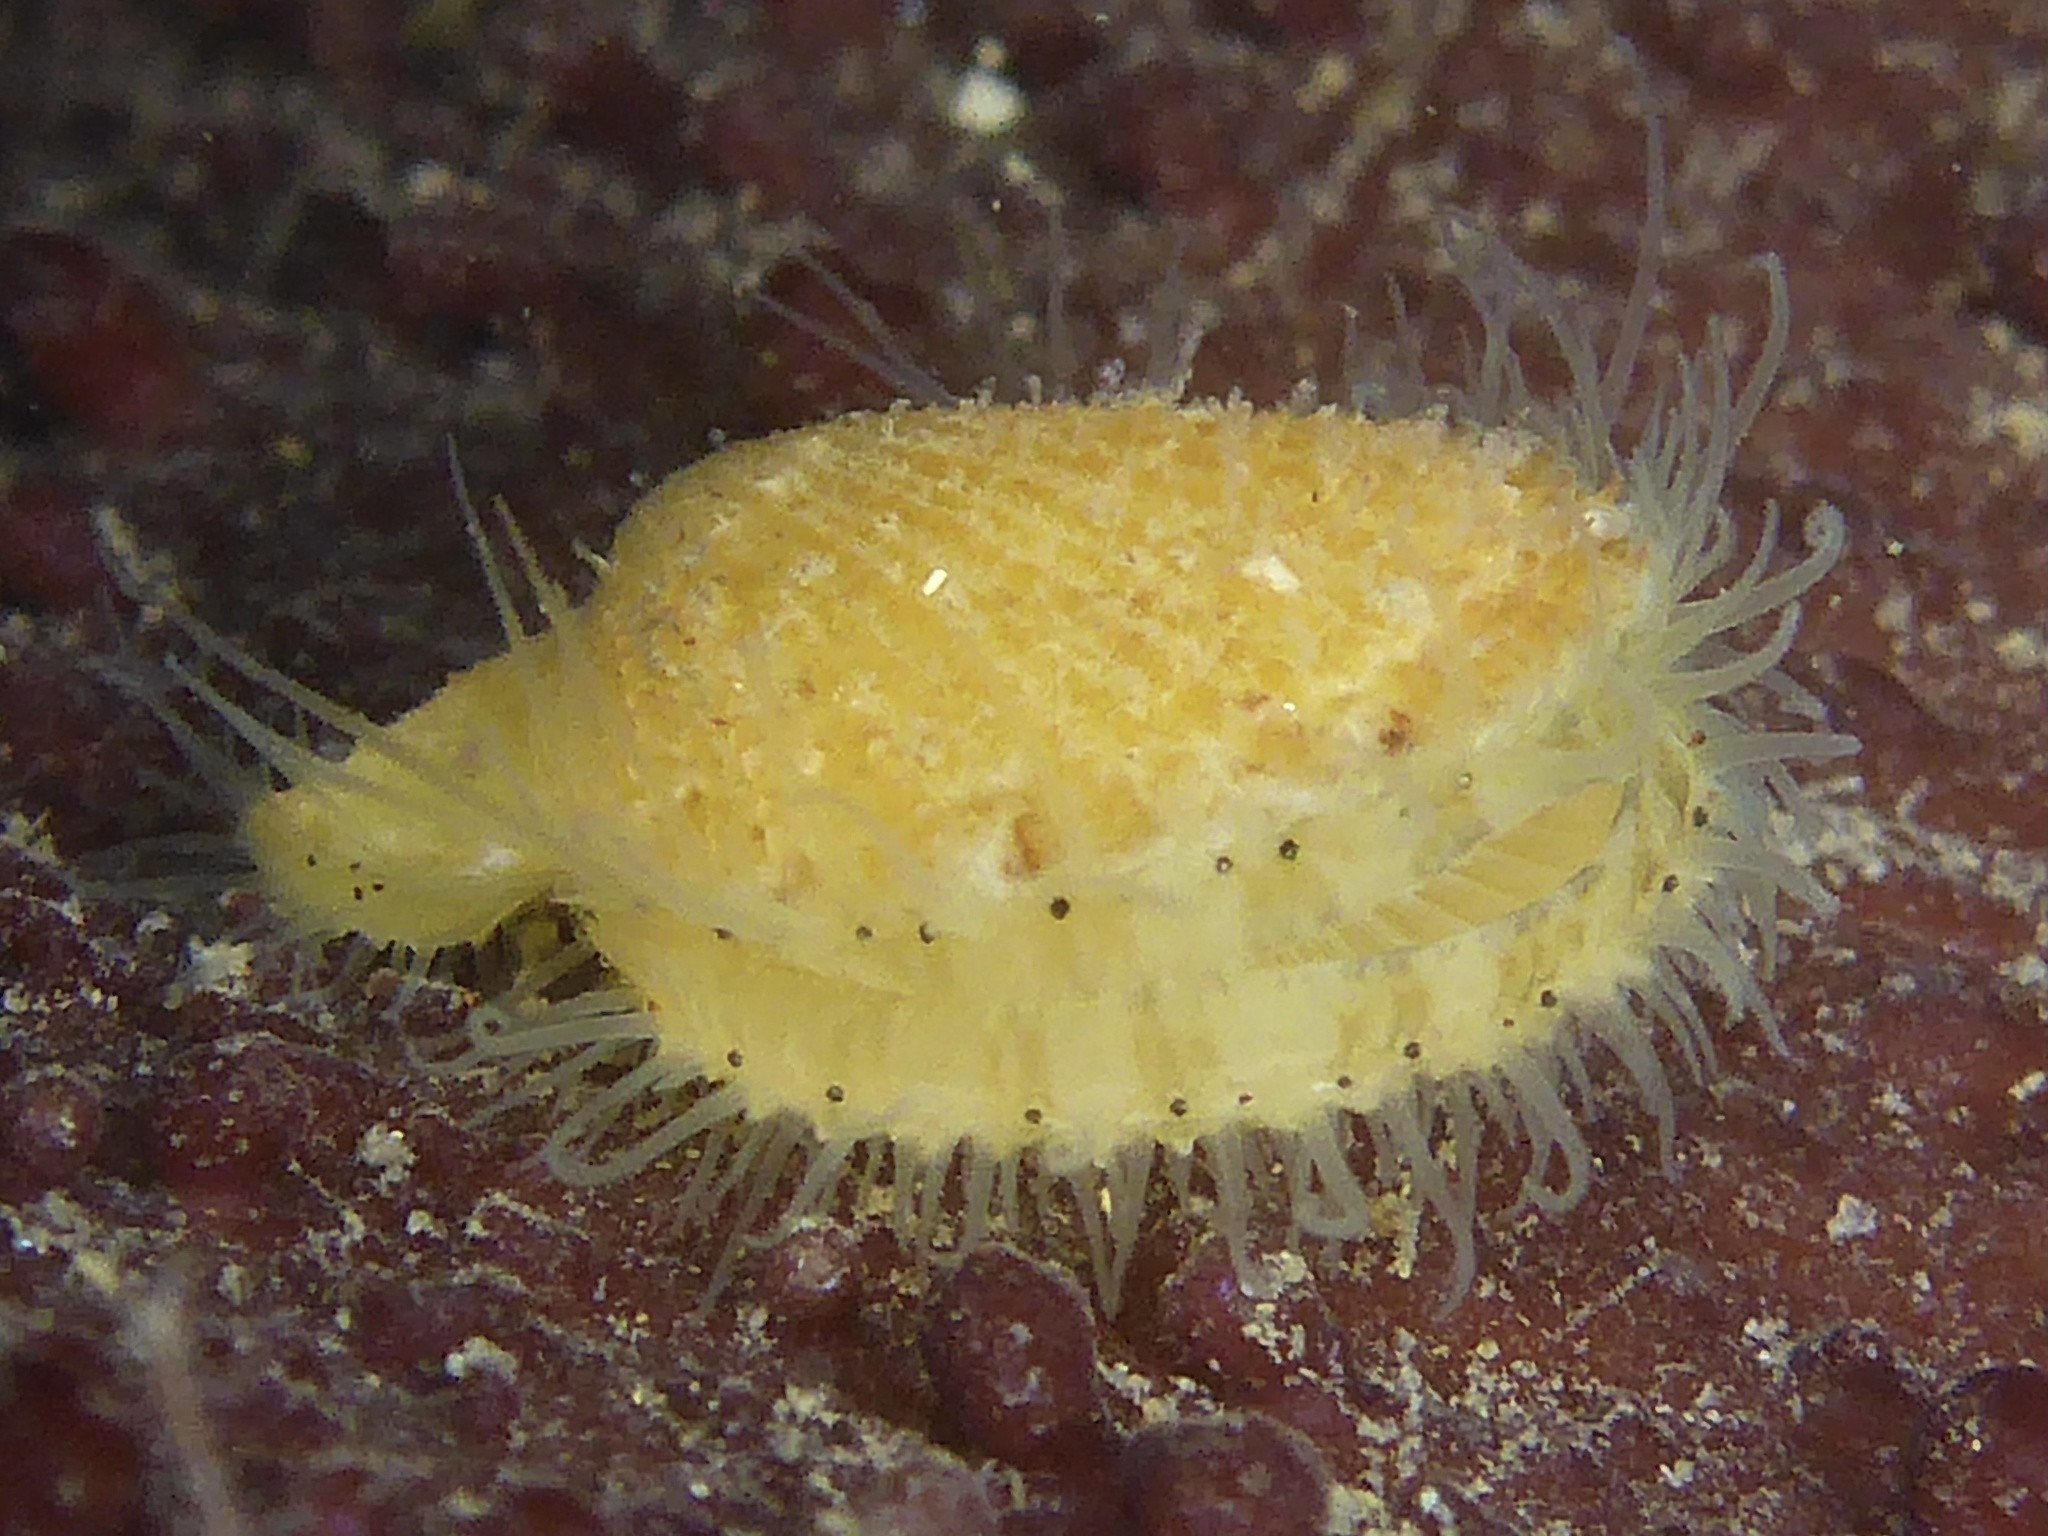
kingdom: Animalia
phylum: Mollusca
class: Bivalvia
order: Pectinida
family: Pectinidae
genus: Crassadoma
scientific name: Crassadoma gigantea
